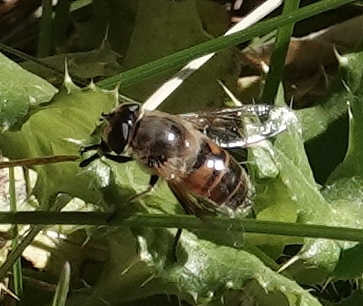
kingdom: Animalia
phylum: Arthropoda
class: Insecta
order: Diptera
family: Syrphidae
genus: Eristalis
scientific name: Eristalis tenax
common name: Drone fly
